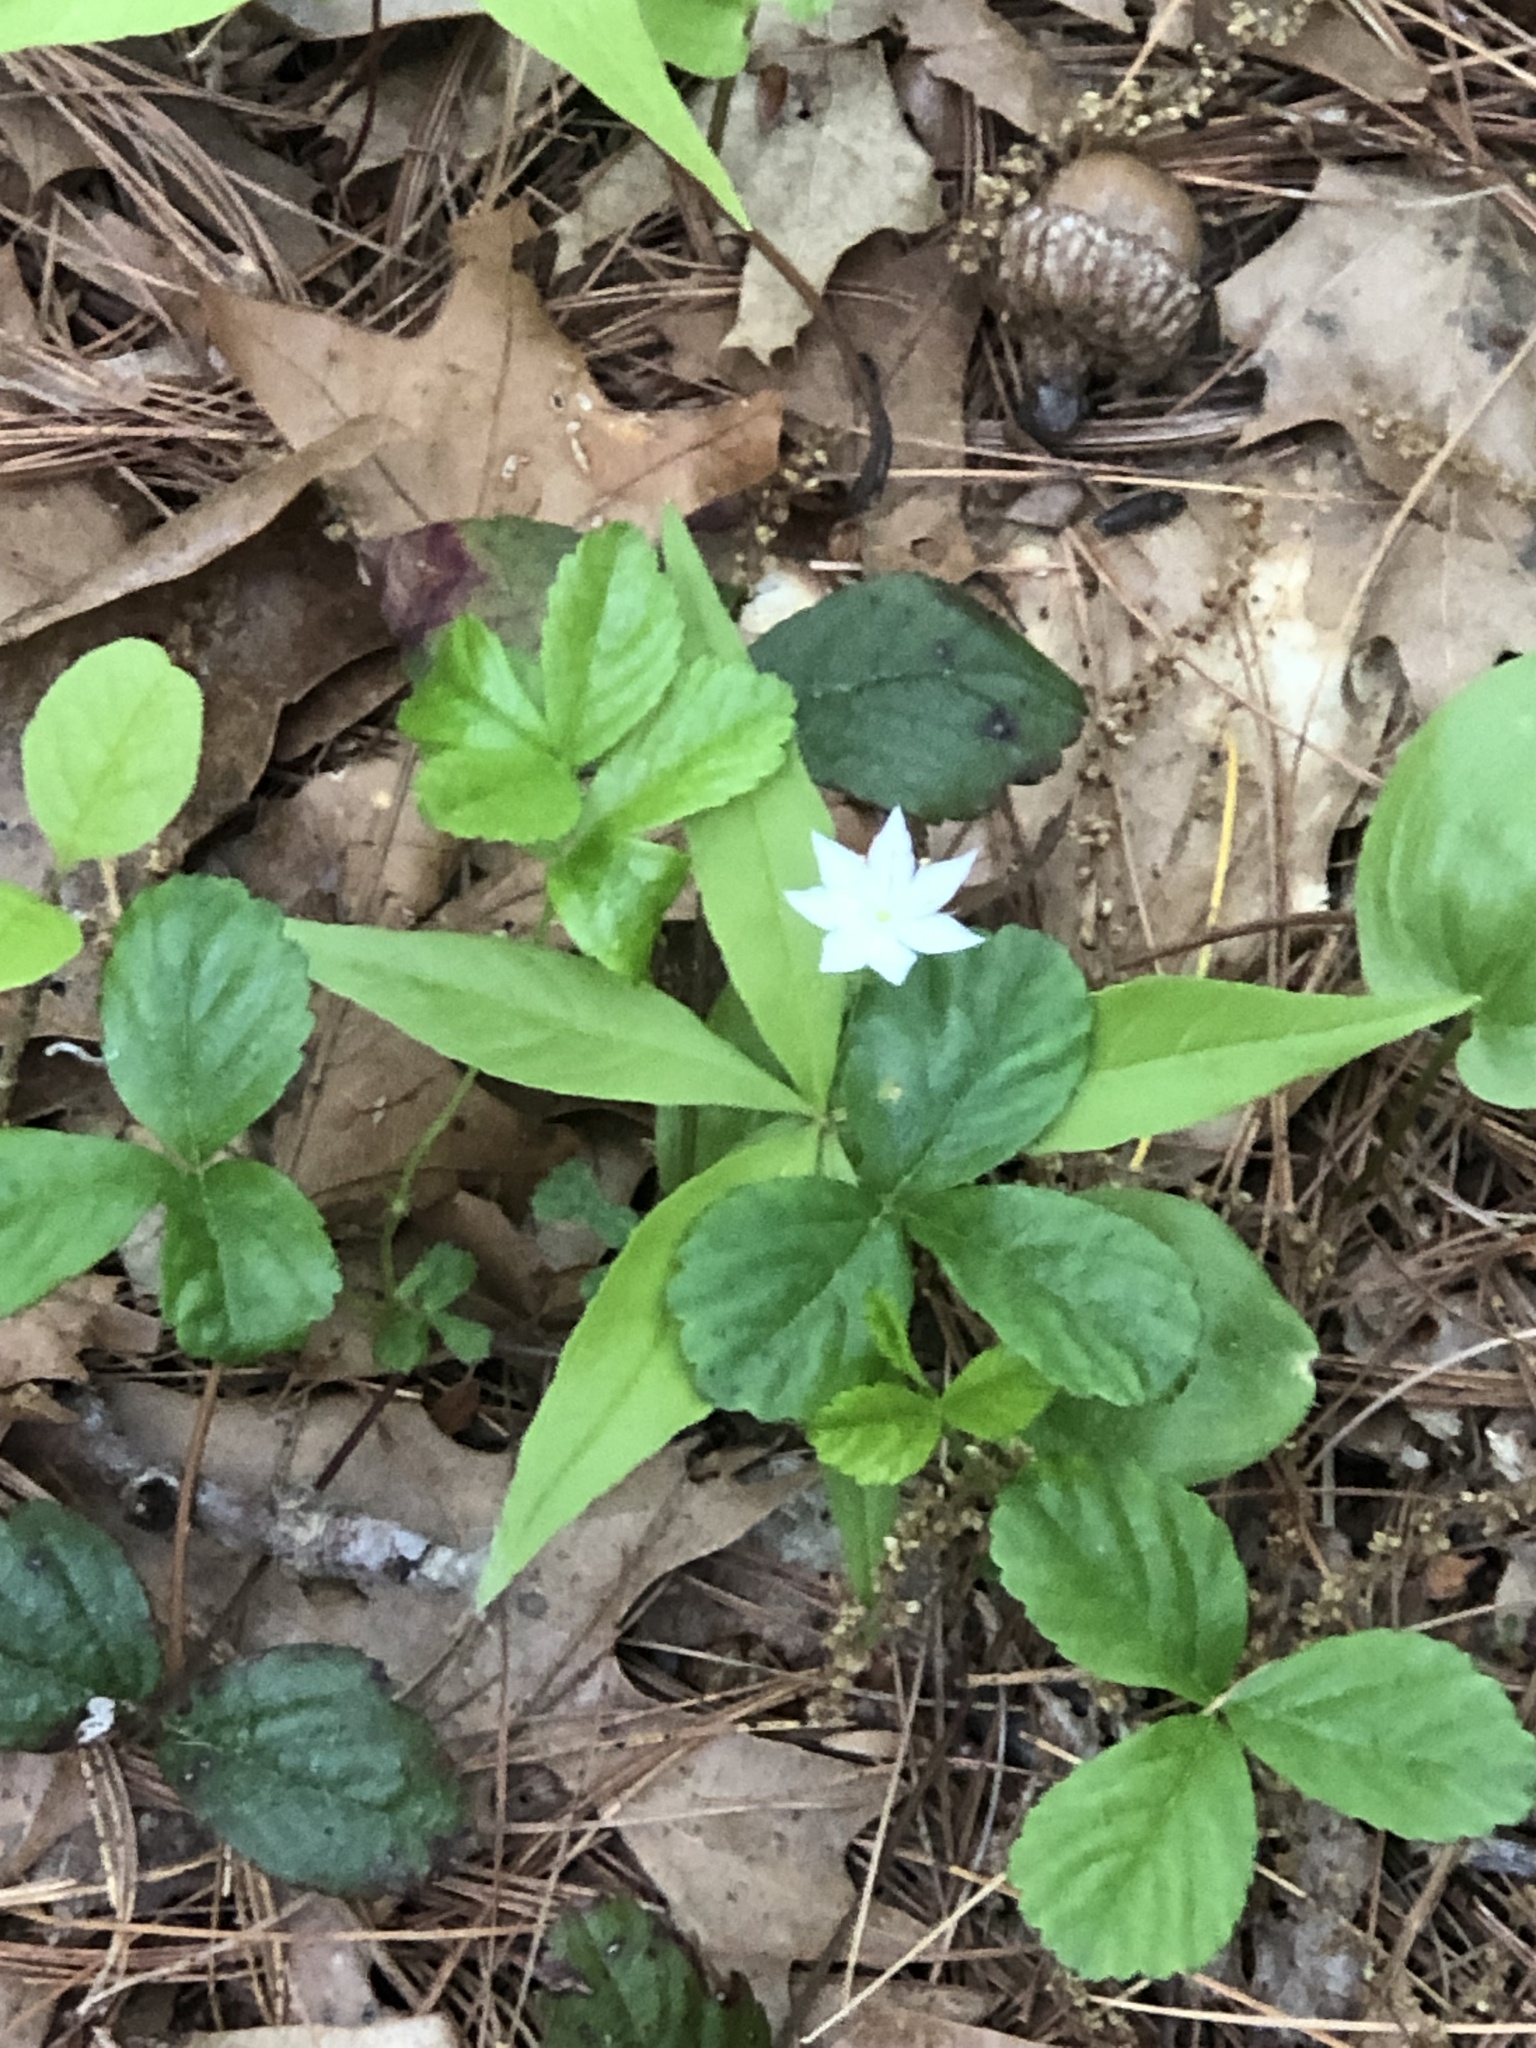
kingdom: Plantae
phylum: Tracheophyta
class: Magnoliopsida
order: Ericales
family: Primulaceae
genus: Lysimachia
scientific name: Lysimachia borealis
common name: American starflower
